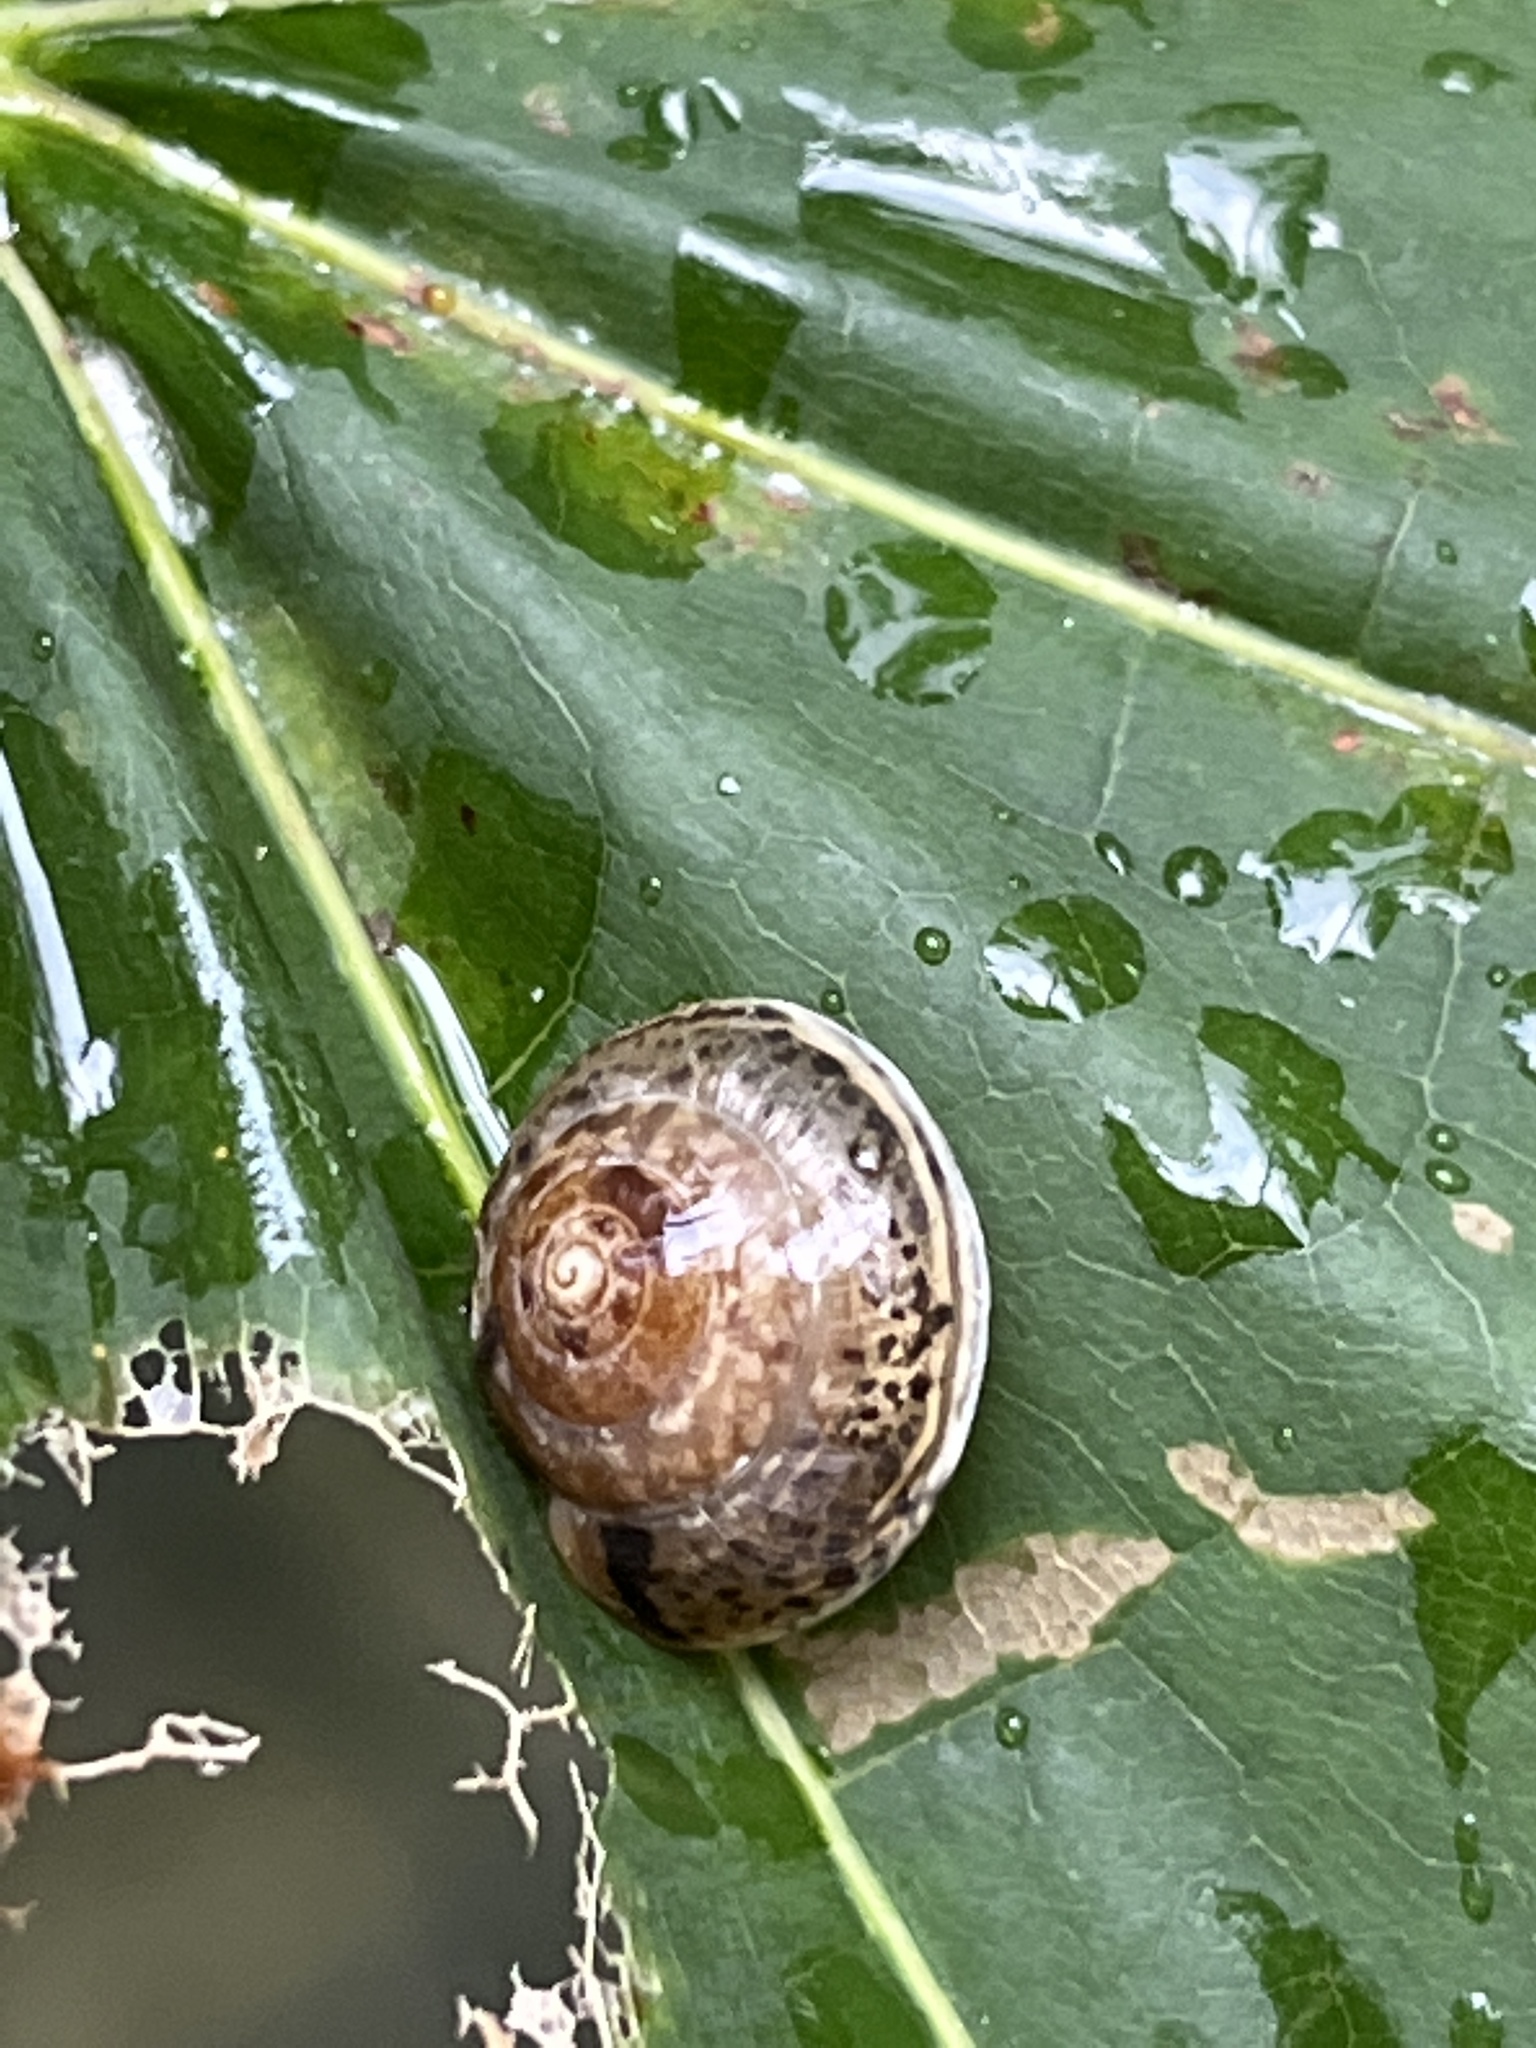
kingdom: Animalia
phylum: Mollusca
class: Gastropoda
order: Stylommatophora
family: Hygromiidae
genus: Hygromia
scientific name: Hygromia cinctella
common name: Girdled snail
